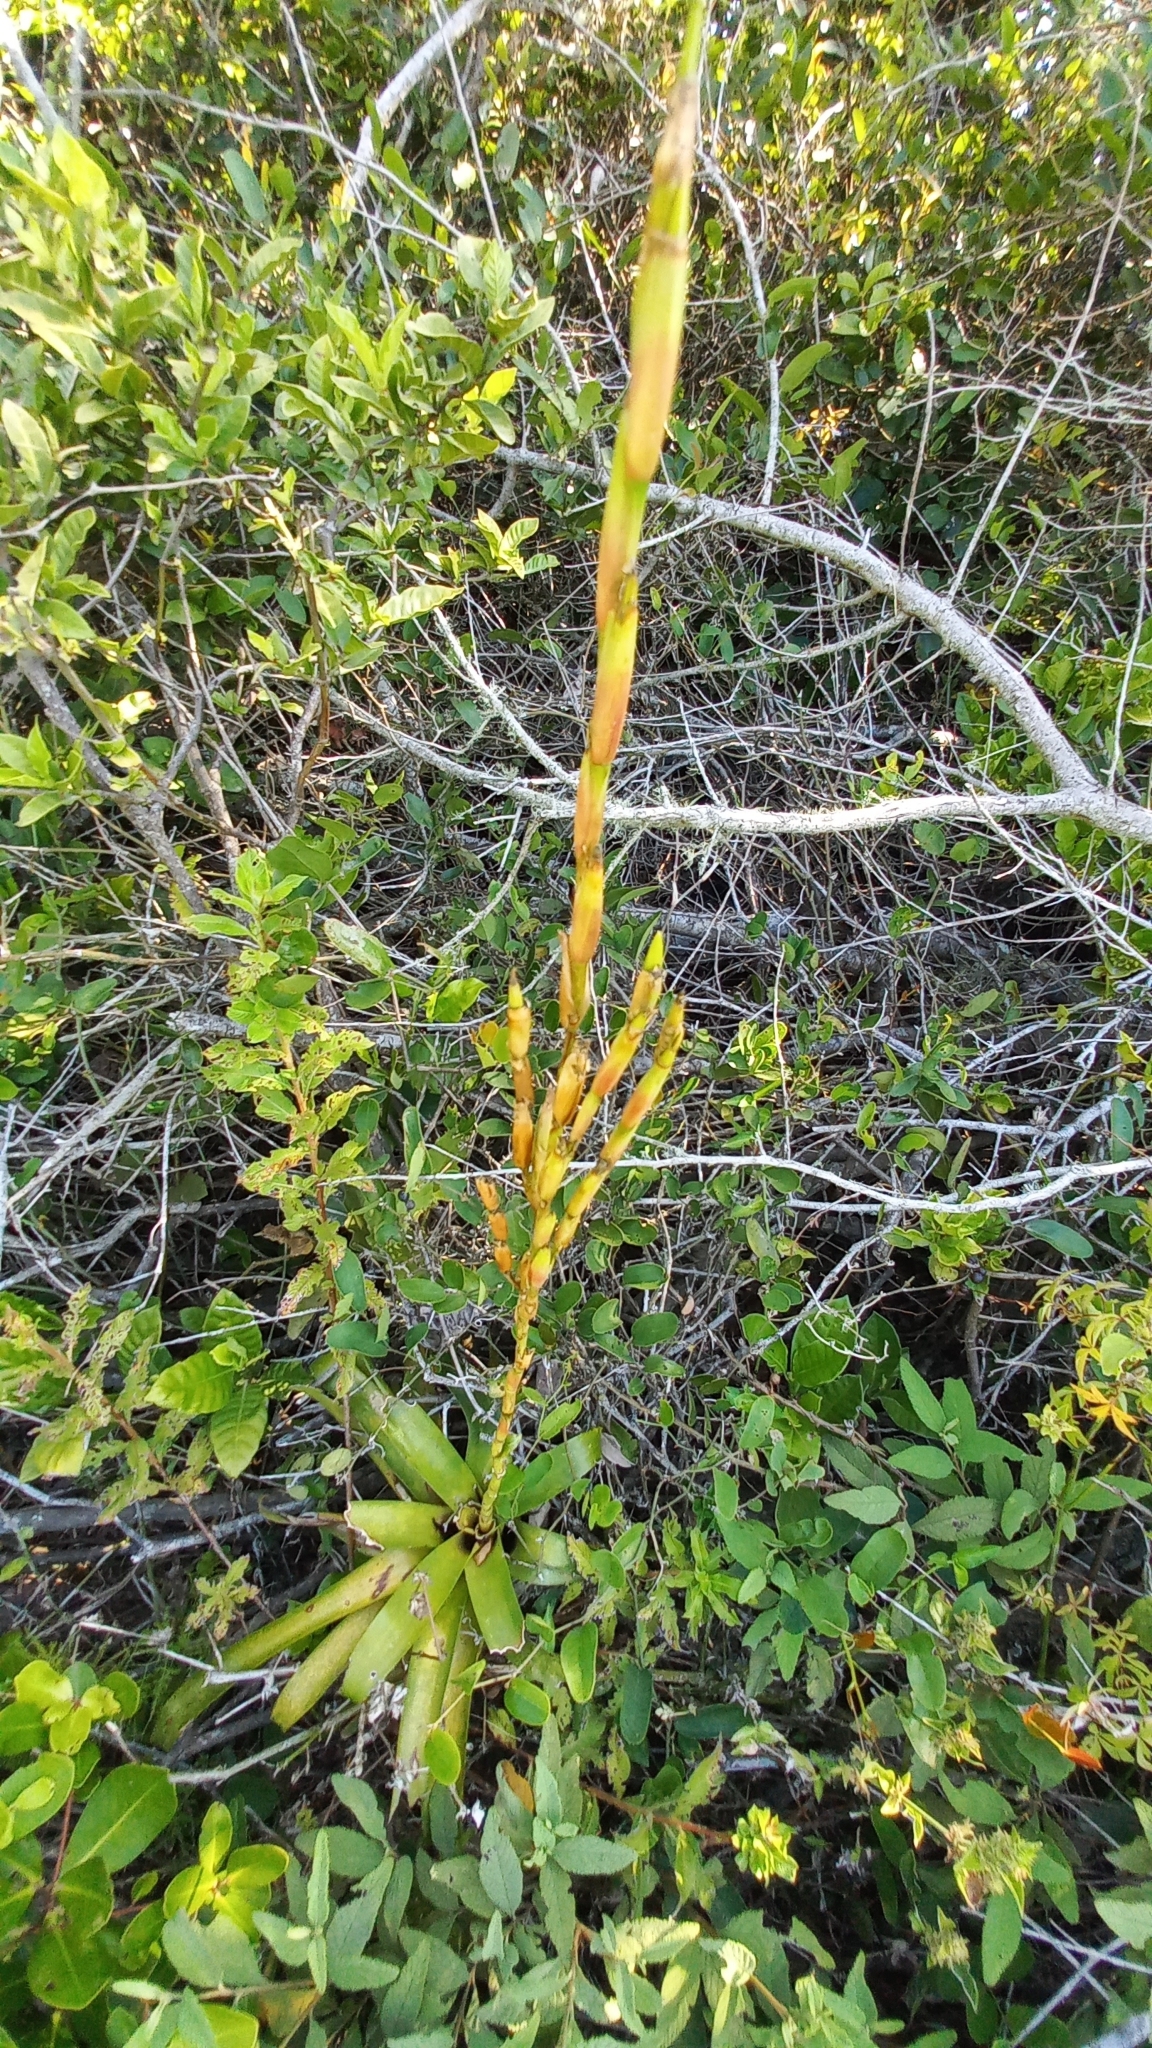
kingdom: Plantae
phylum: Tracheophyta
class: Liliopsida
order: Poales
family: Bromeliaceae
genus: Vriesea
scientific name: Vriesea rubroviridis
